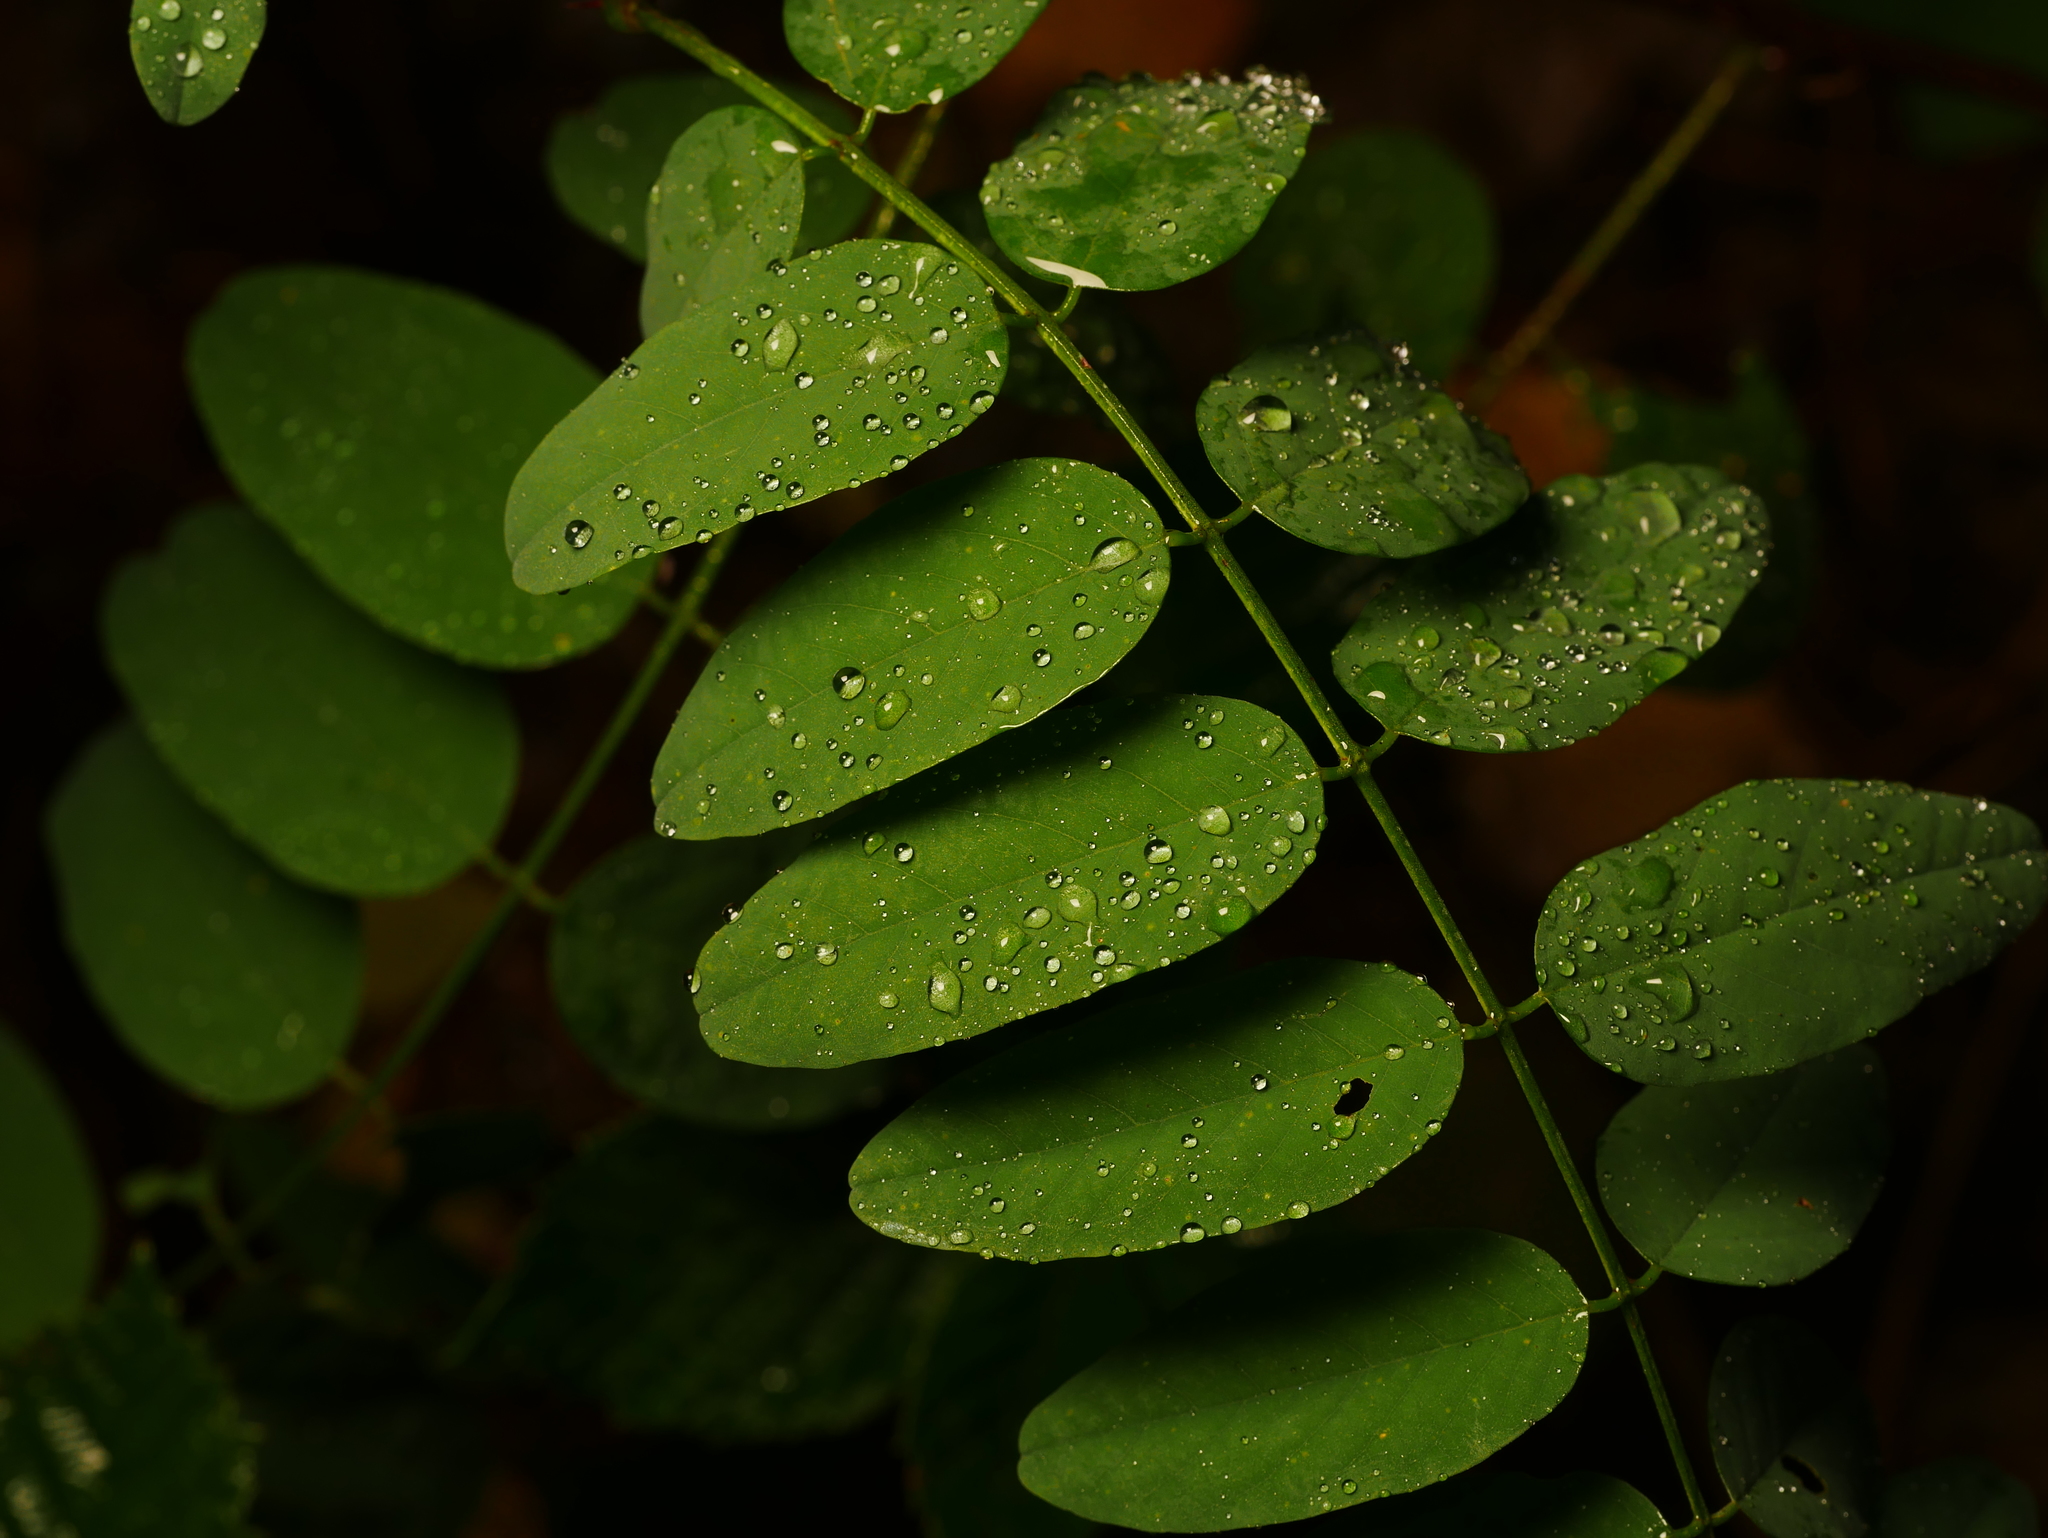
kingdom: Plantae
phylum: Tracheophyta
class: Magnoliopsida
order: Fabales
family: Fabaceae
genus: Robinia
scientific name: Robinia pseudoacacia
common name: Black locust
